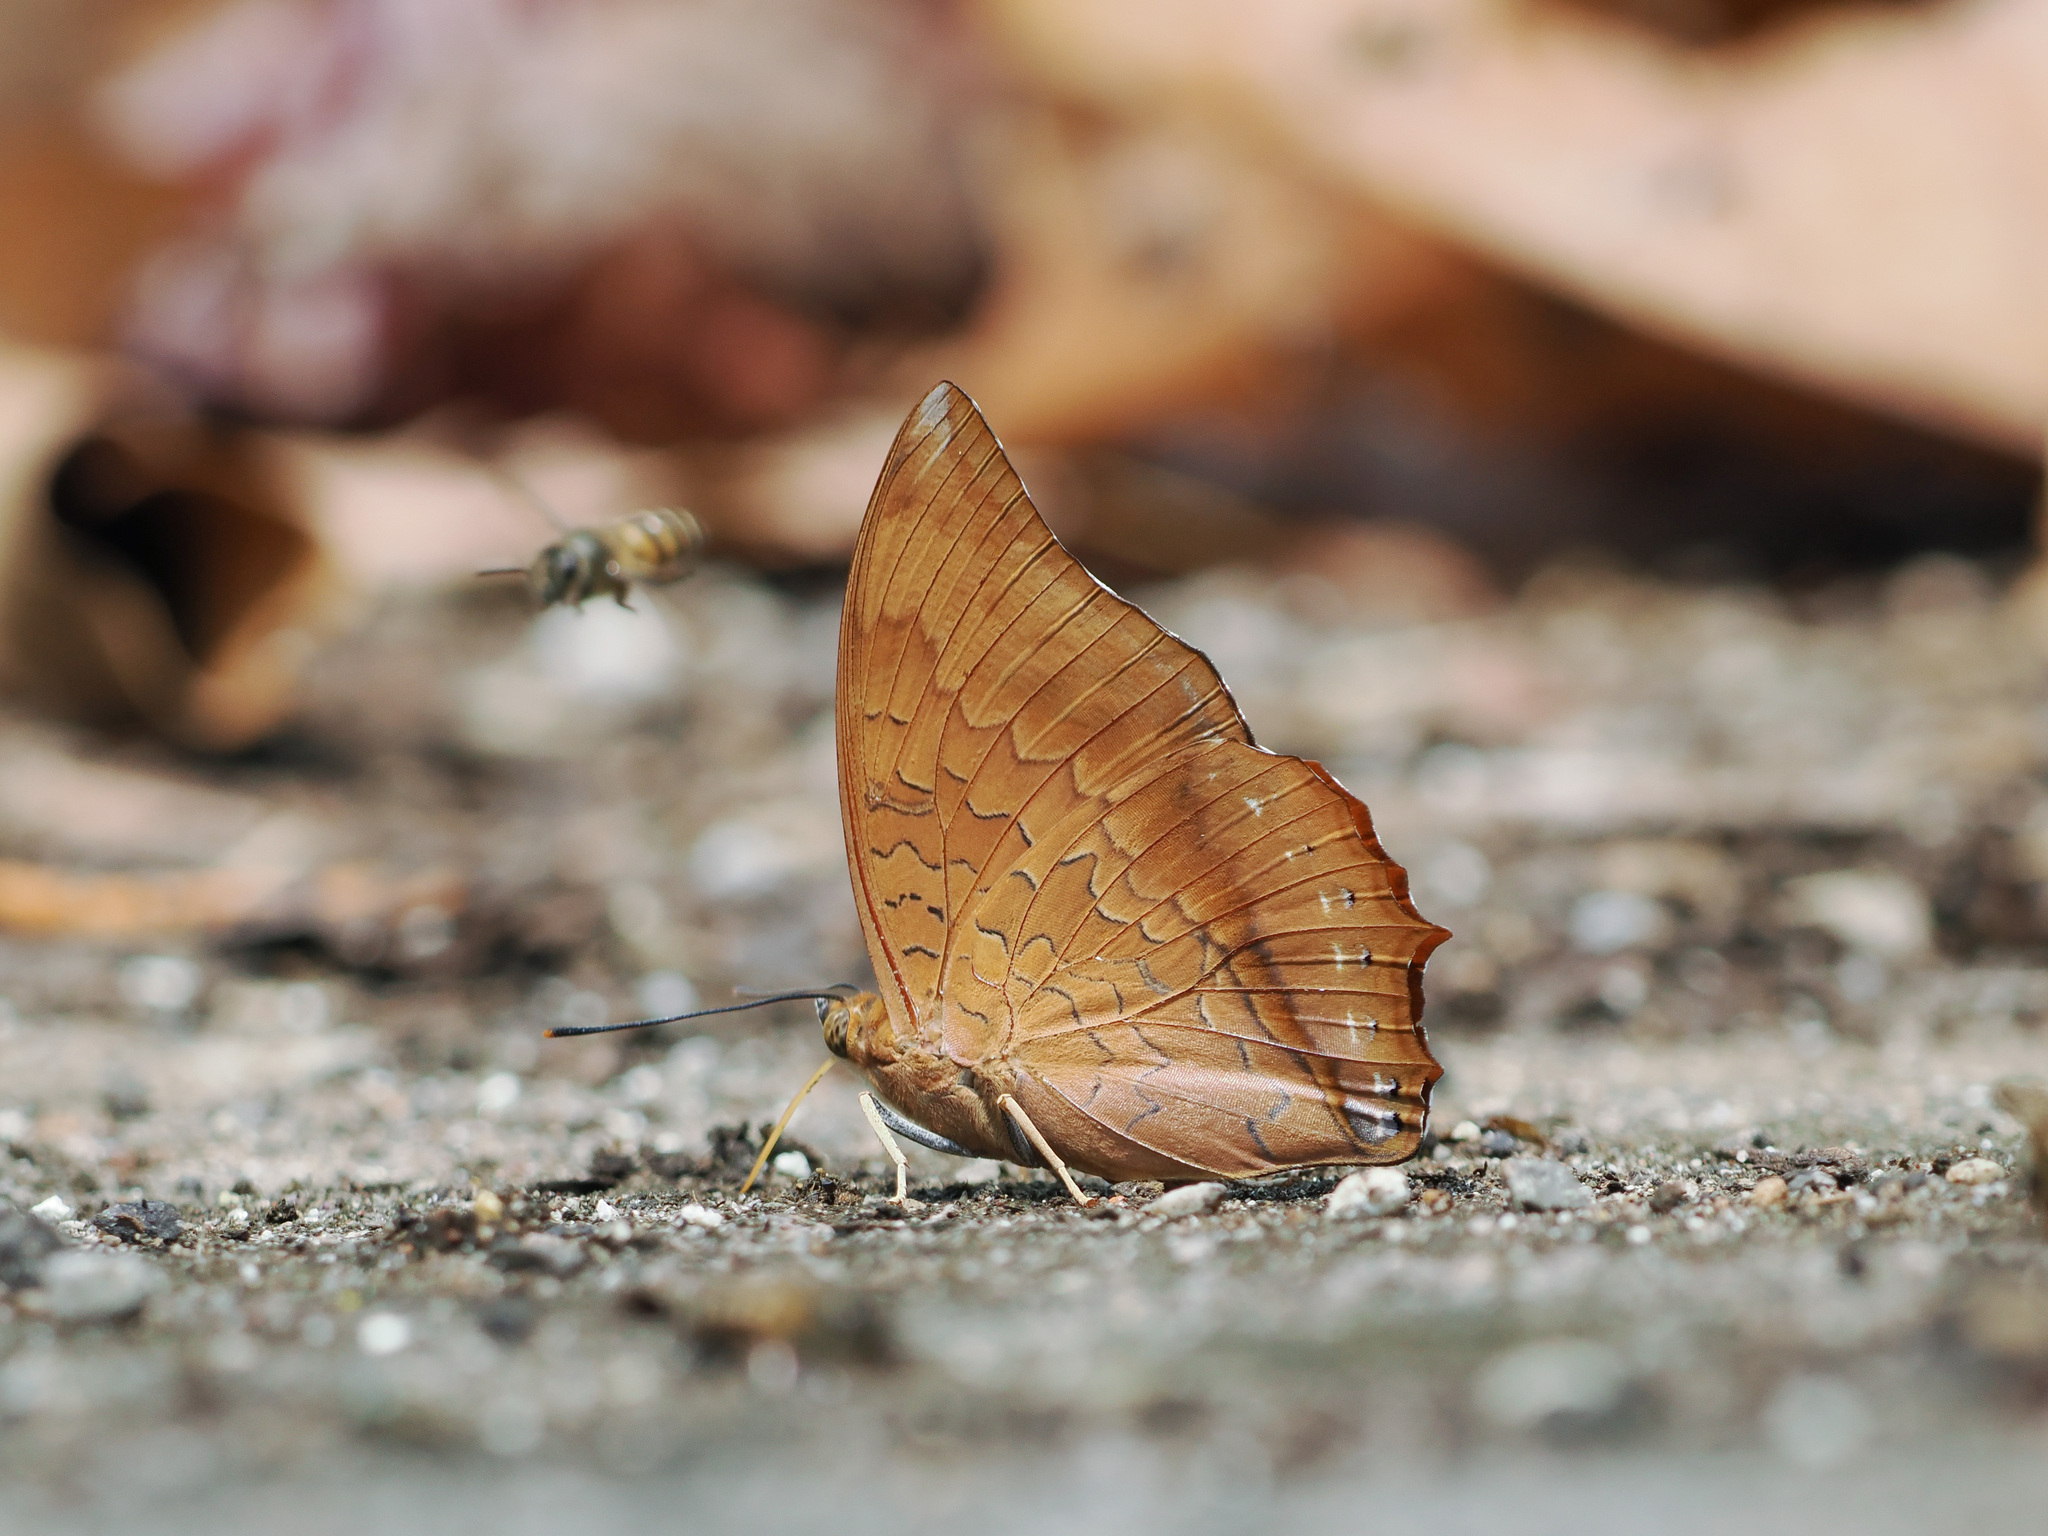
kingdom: Animalia
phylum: Arthropoda
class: Insecta
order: Lepidoptera
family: Nymphalidae
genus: Charaxes
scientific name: Charaxes bernardus
